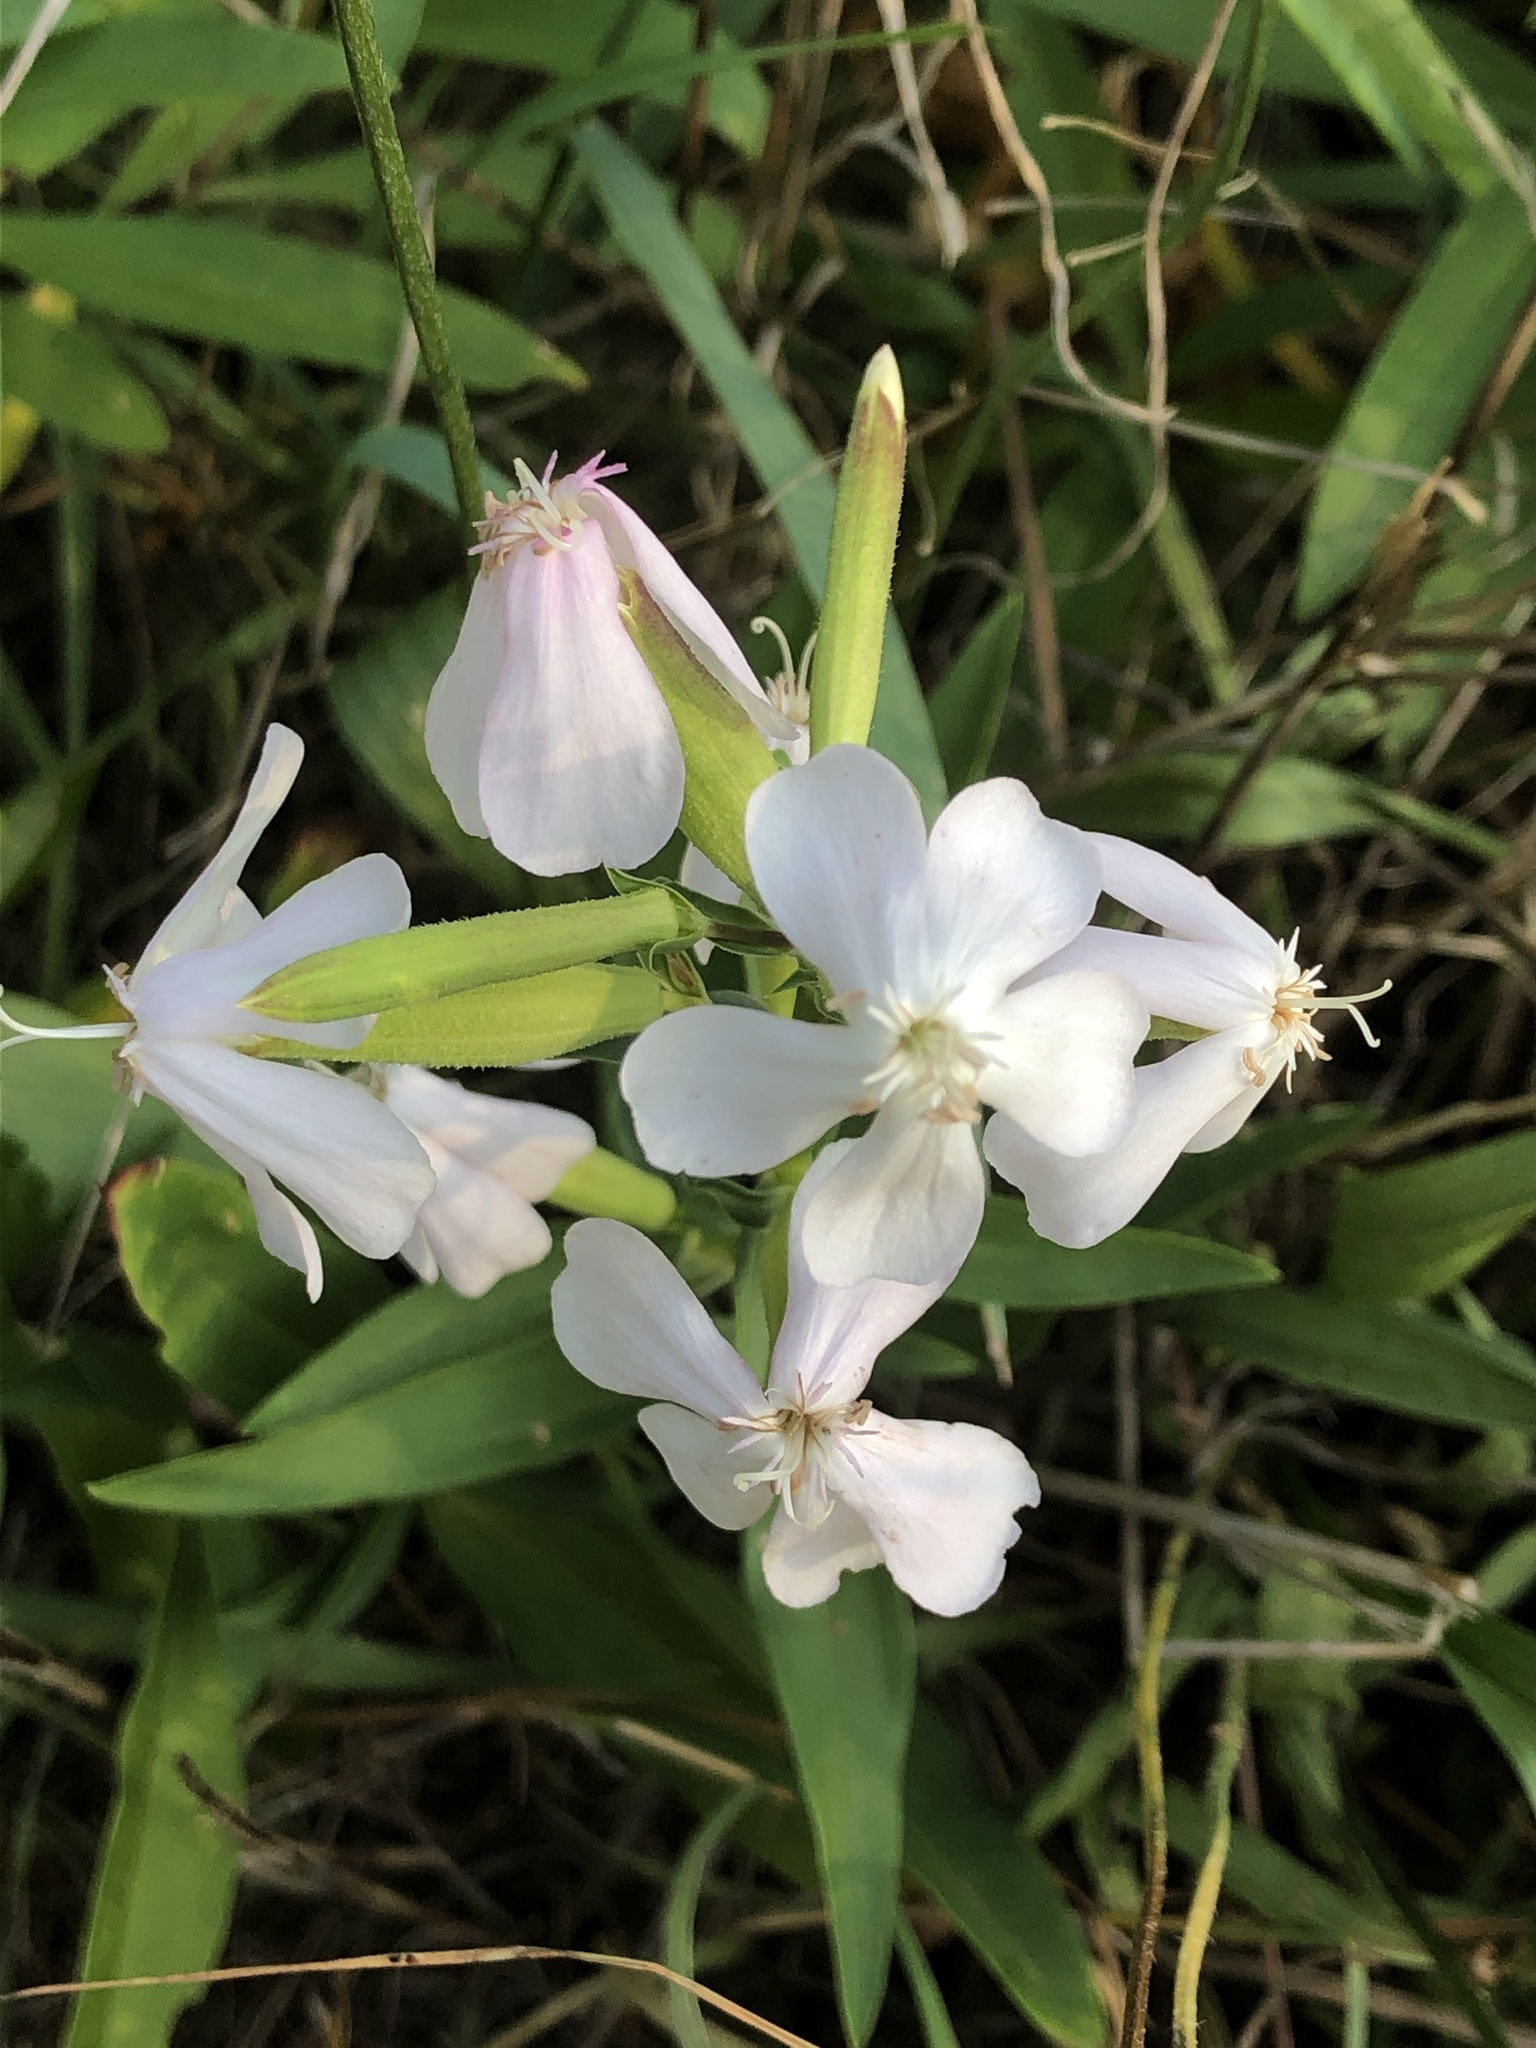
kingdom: Plantae
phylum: Tracheophyta
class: Magnoliopsida
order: Caryophyllales
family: Caryophyllaceae
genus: Saponaria
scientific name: Saponaria officinalis
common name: Soapwort
